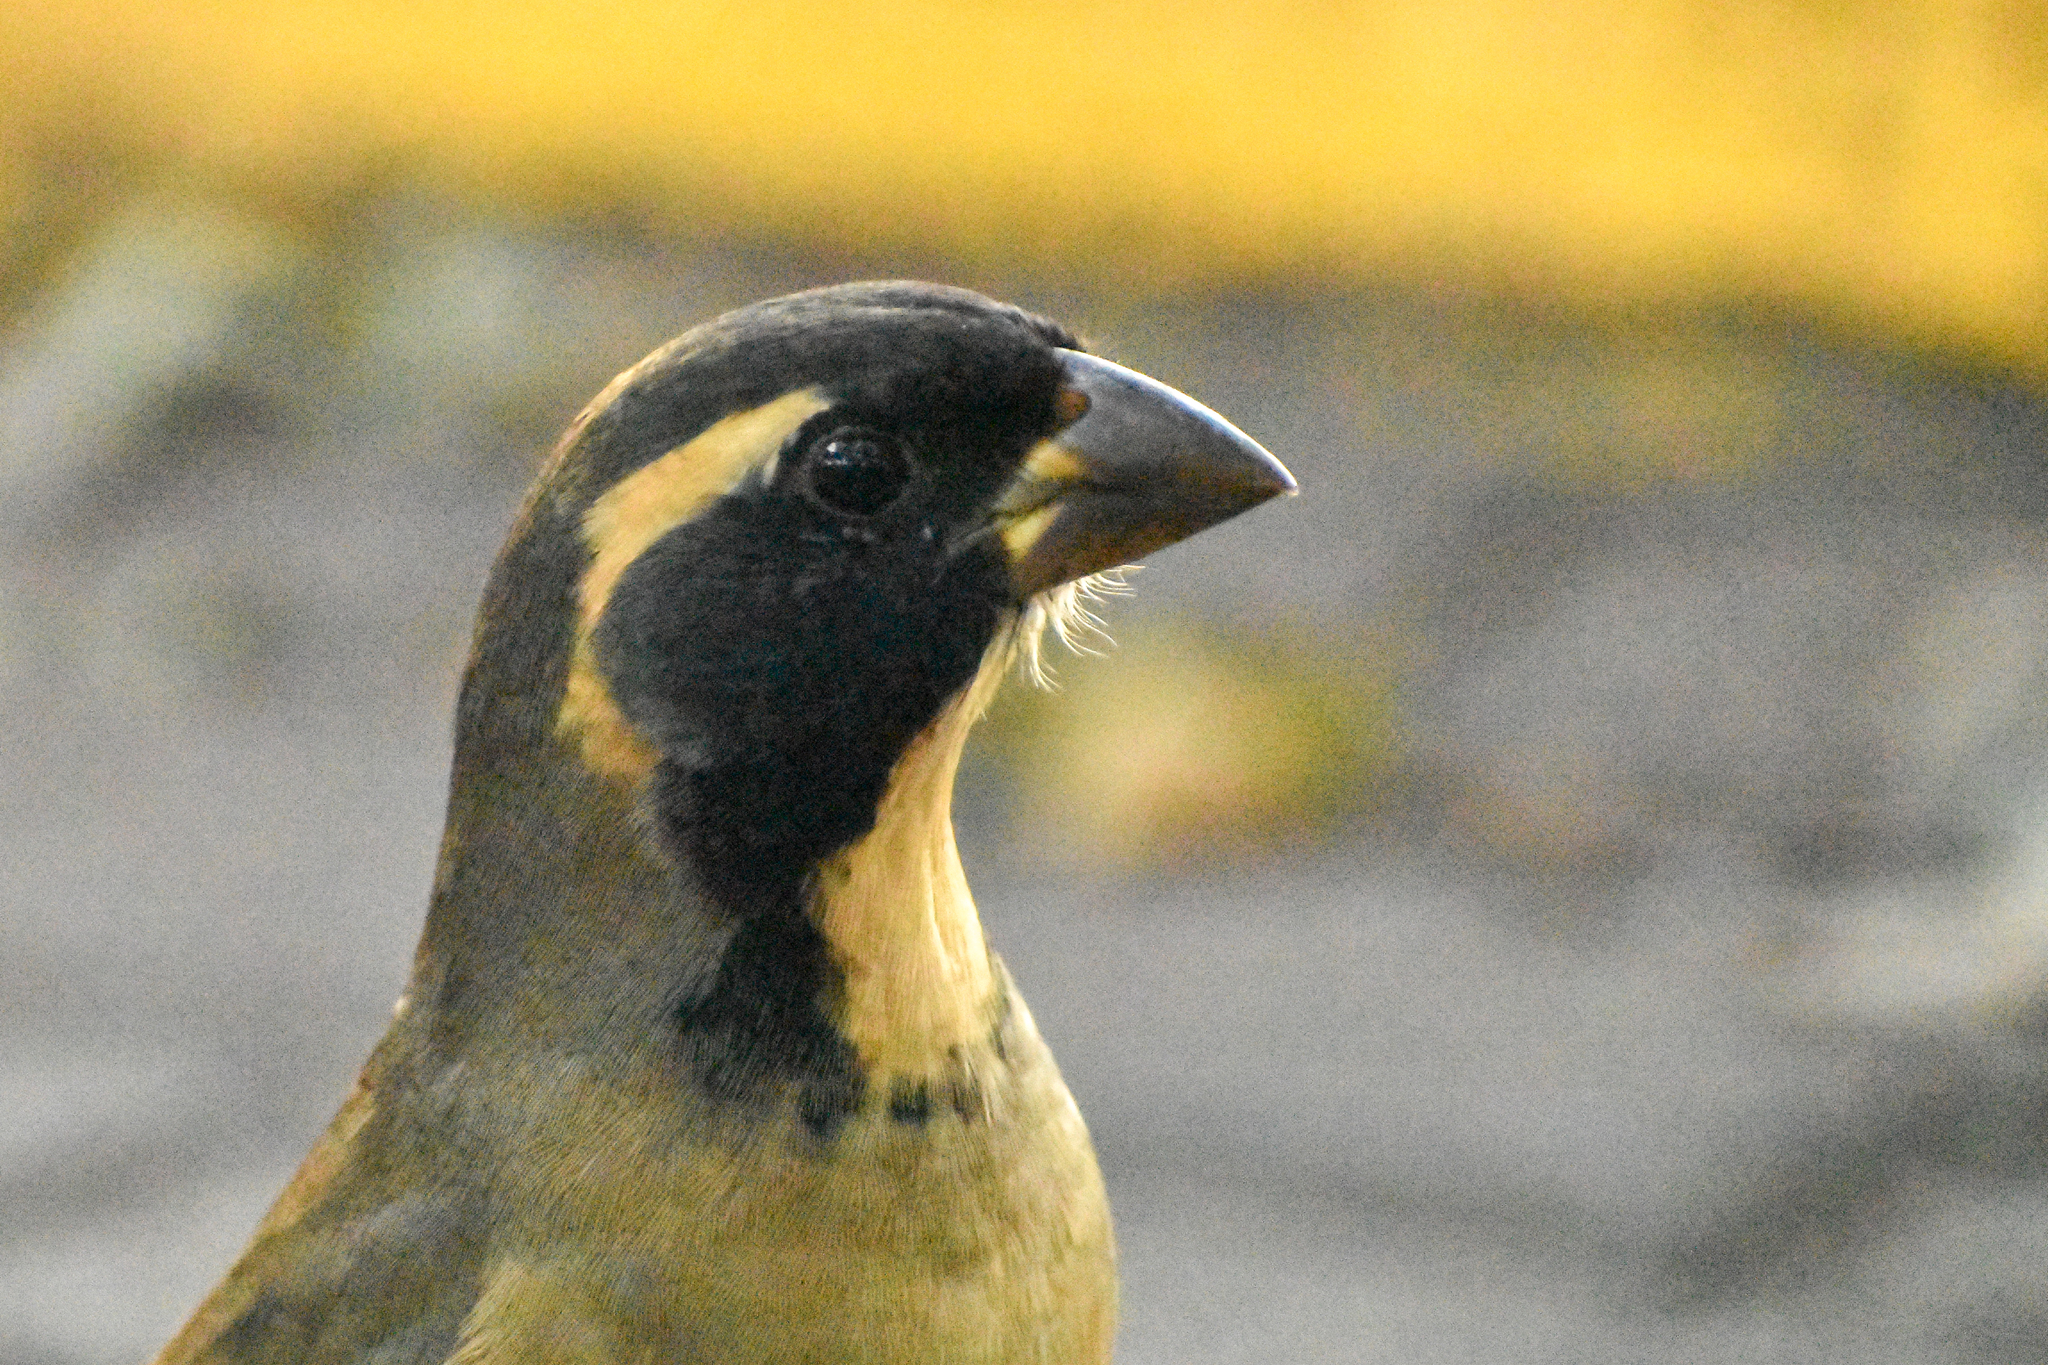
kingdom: Animalia
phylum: Chordata
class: Aves
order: Passeriformes
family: Thraupidae
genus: Saltator
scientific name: Saltator aurantiirostris
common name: Golden-billed saltator
